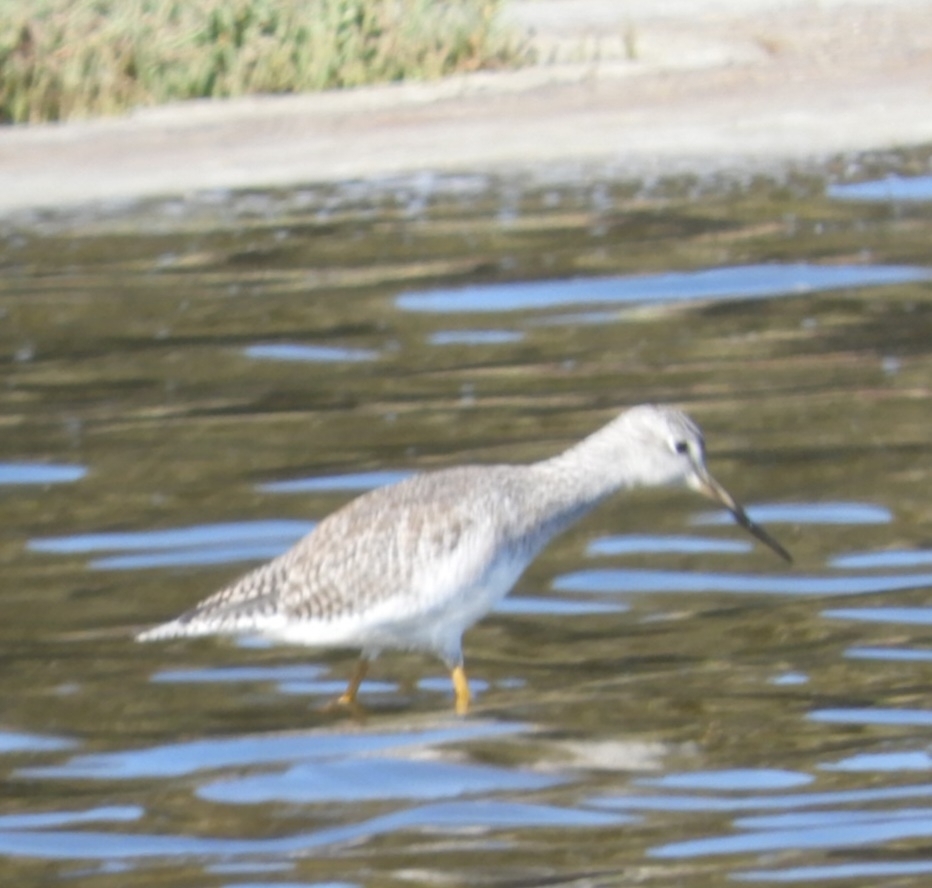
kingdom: Animalia
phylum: Chordata
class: Aves
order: Charadriiformes
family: Scolopacidae
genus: Tringa
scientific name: Tringa melanoleuca
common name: Greater yellowlegs
